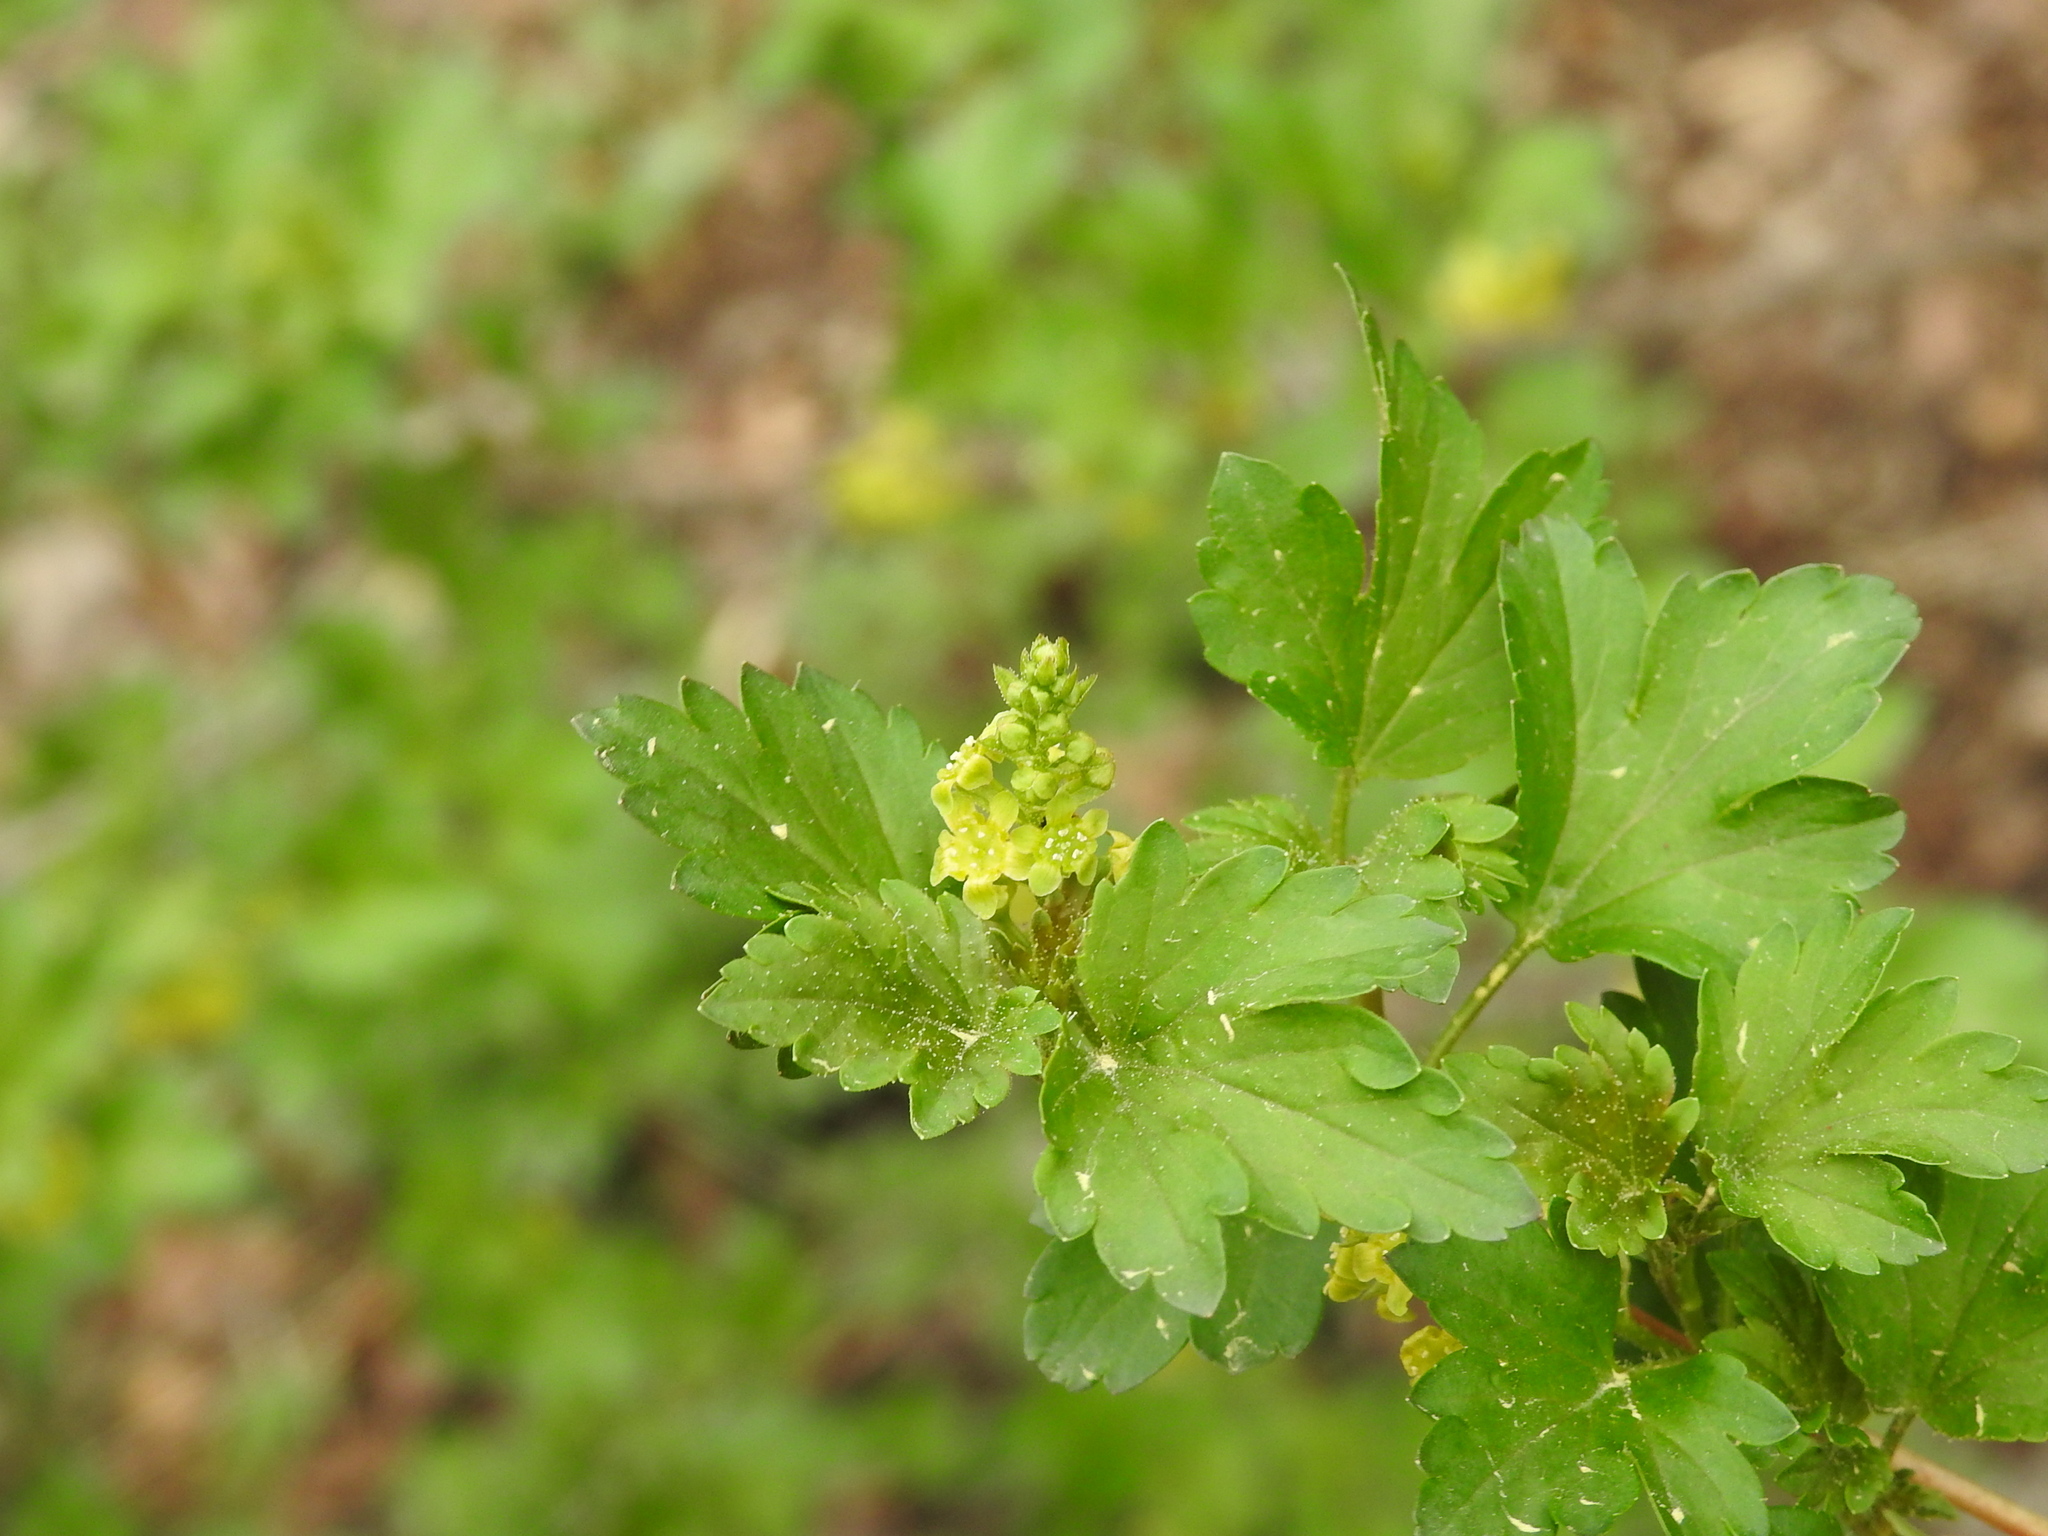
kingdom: Plantae
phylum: Tracheophyta
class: Magnoliopsida
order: Saxifragales
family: Grossulariaceae
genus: Ribes
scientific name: Ribes alpinum
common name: Alpine currant
